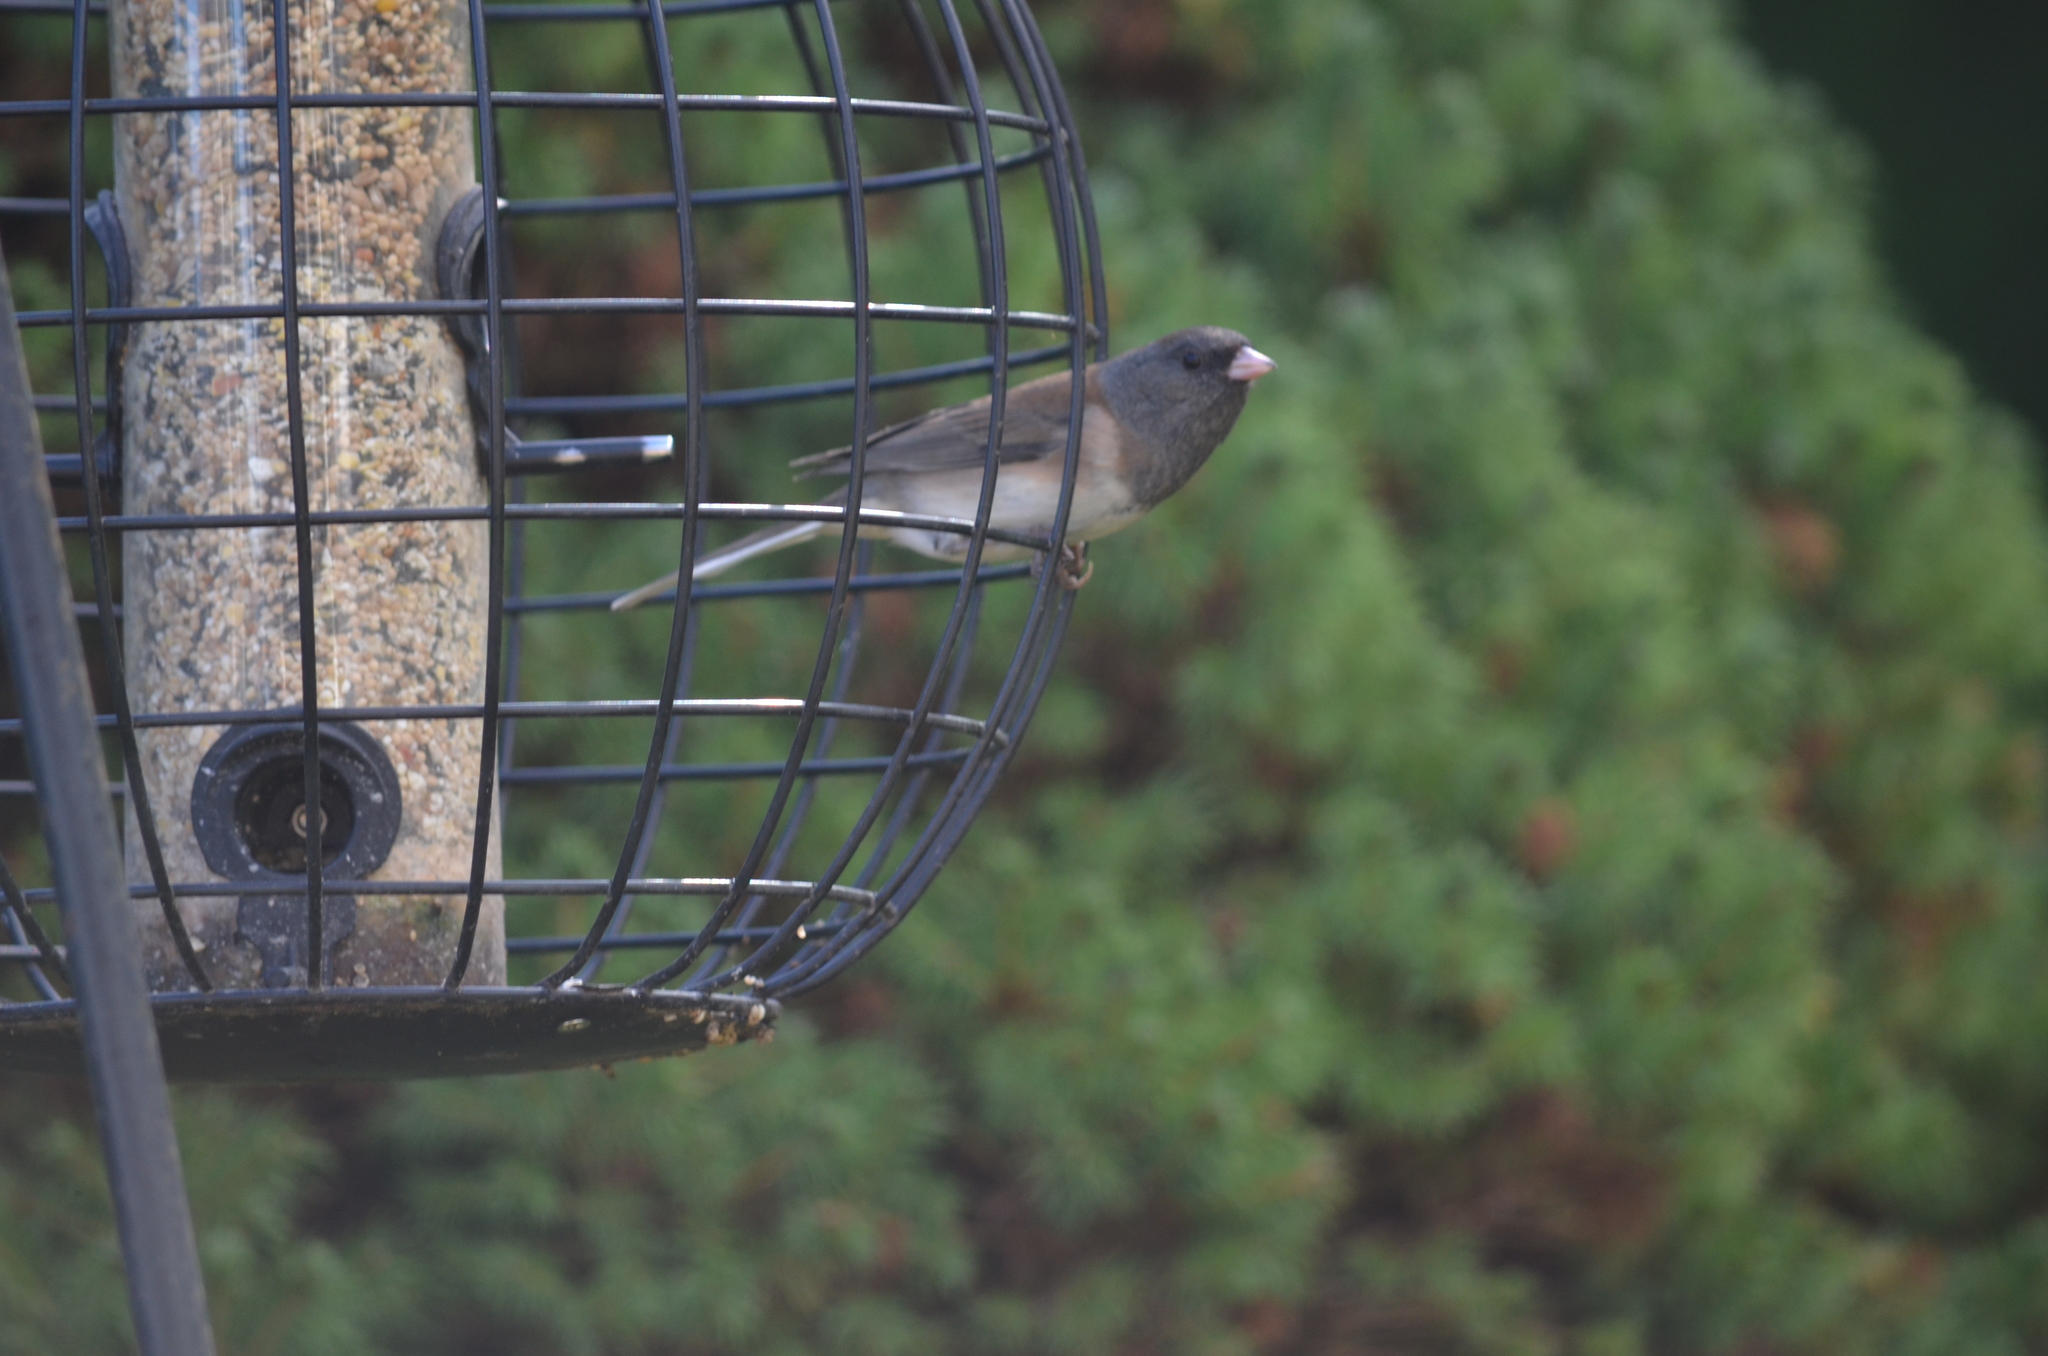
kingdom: Animalia
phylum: Chordata
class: Aves
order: Passeriformes
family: Passerellidae
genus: Junco
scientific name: Junco hyemalis
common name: Dark-eyed junco
